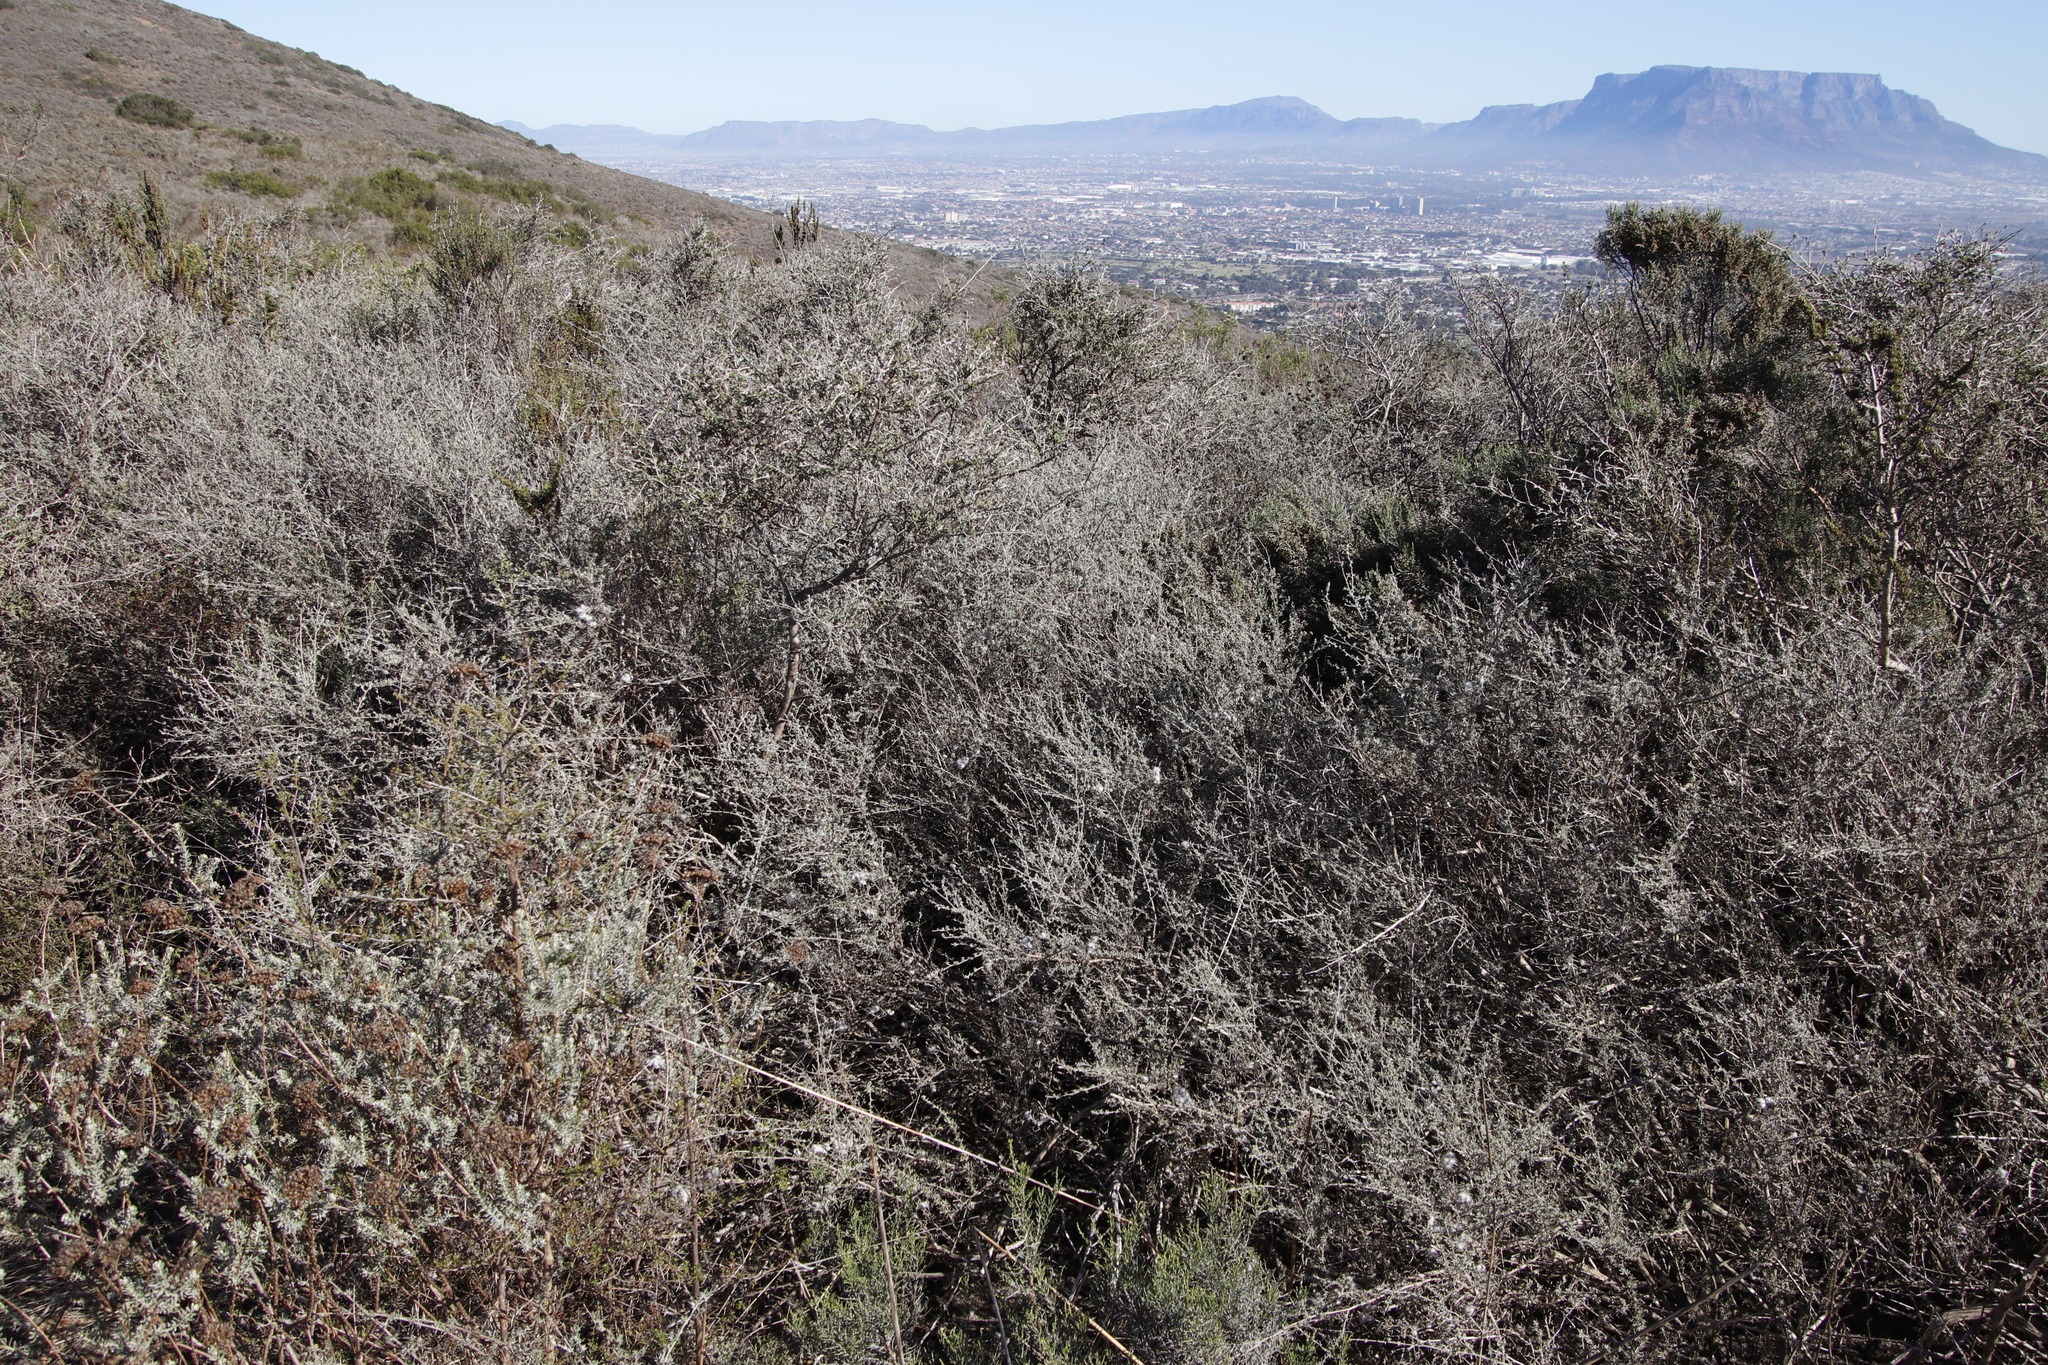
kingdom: Plantae
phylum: Tracheophyta
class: Magnoliopsida
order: Asterales
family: Asteraceae
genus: Eriocephalus
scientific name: Eriocephalus africanus
